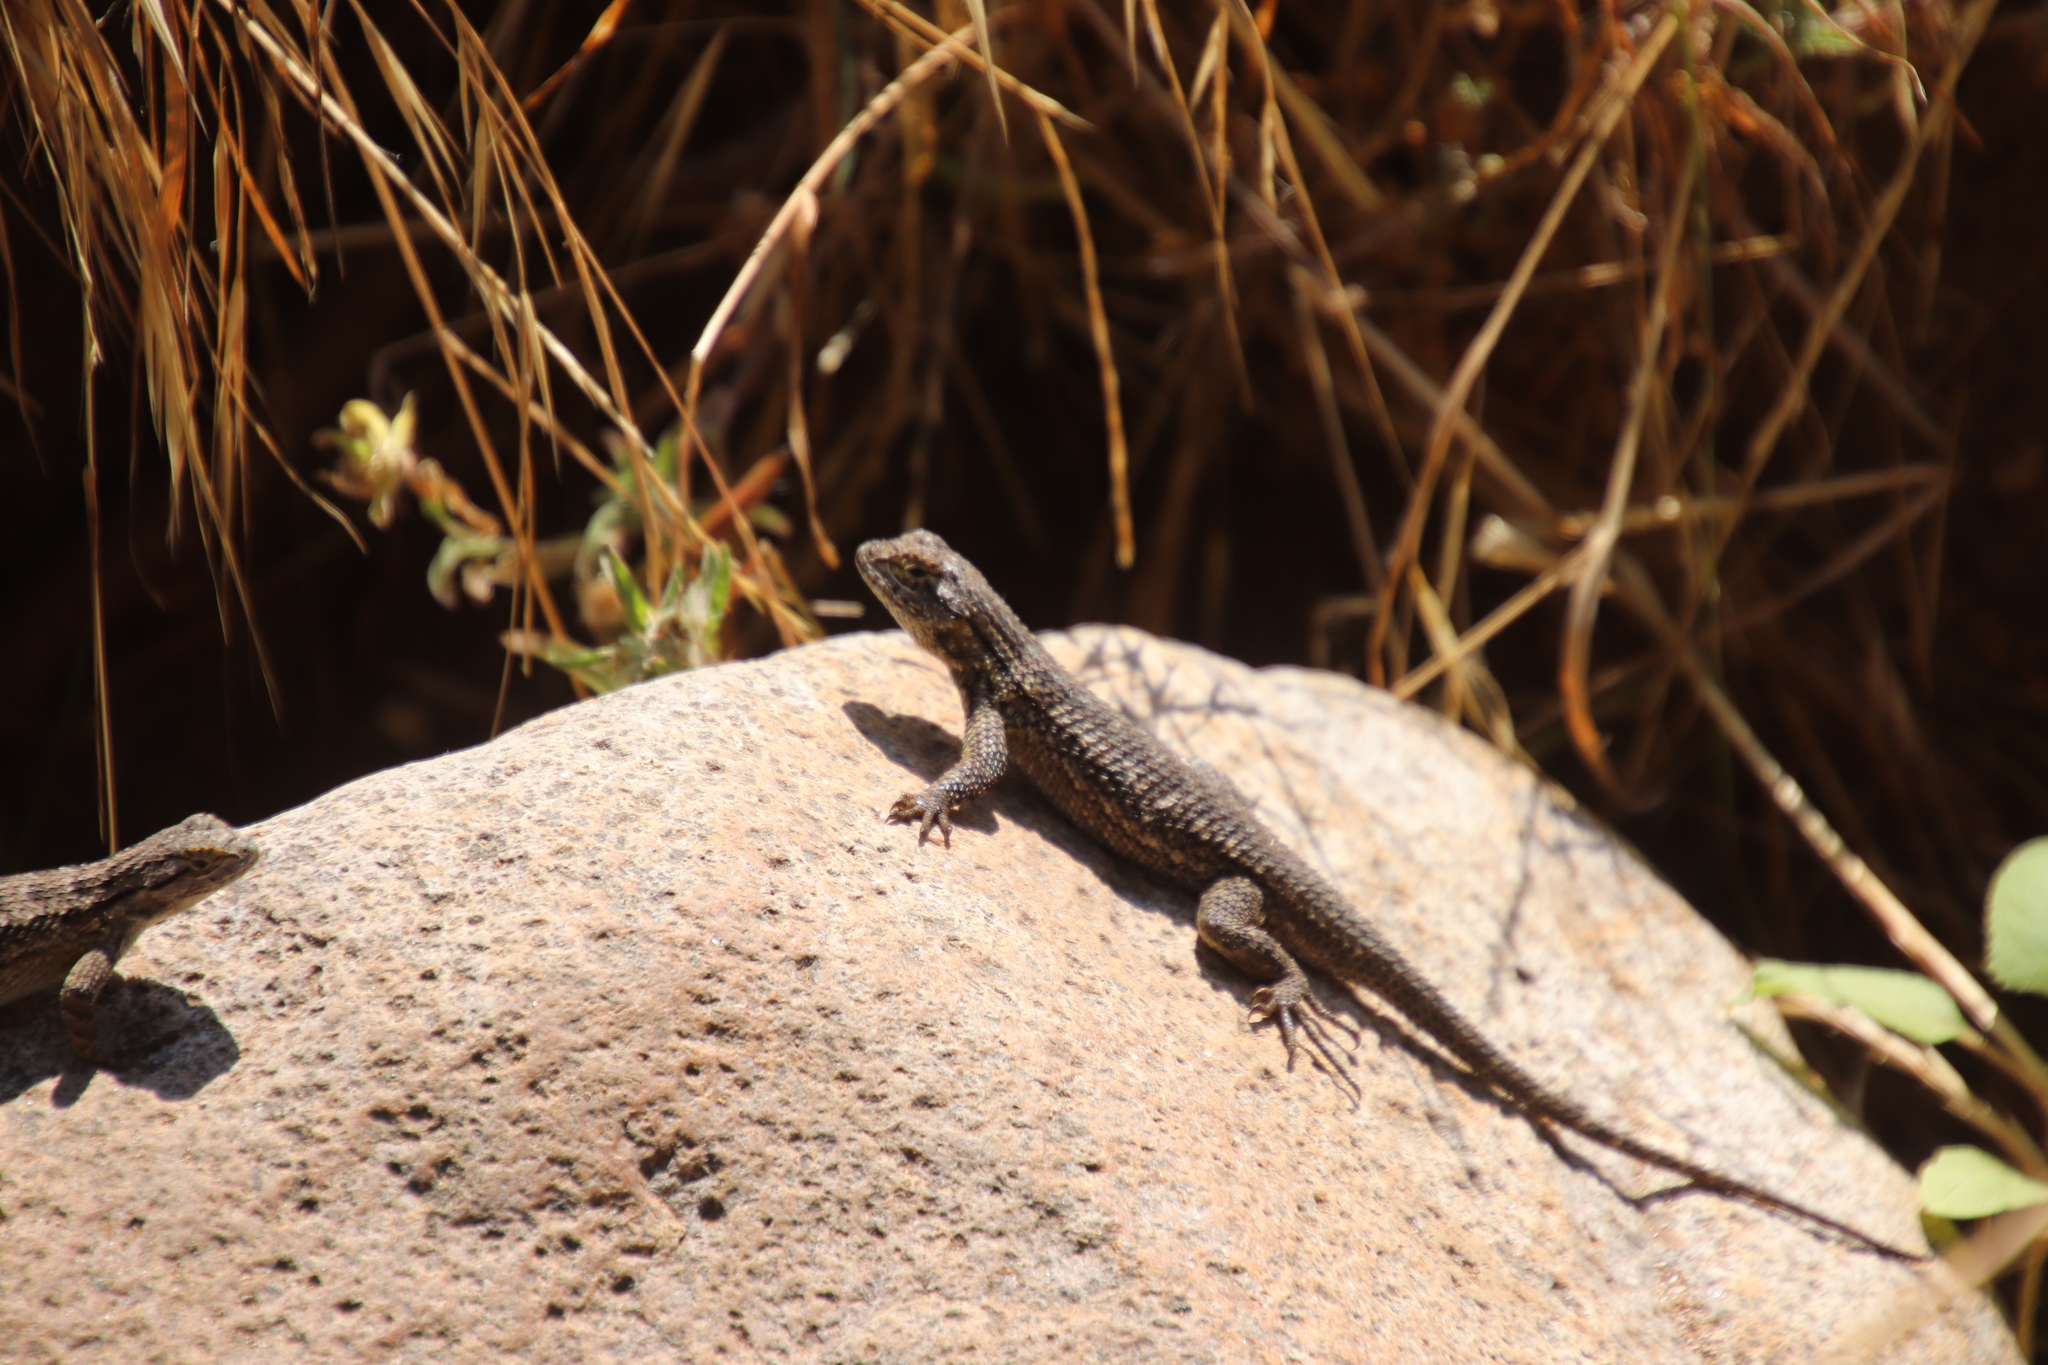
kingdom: Animalia
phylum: Chordata
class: Squamata
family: Phrynosomatidae
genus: Sceloporus
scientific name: Sceloporus occidentalis
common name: Western fence lizard
